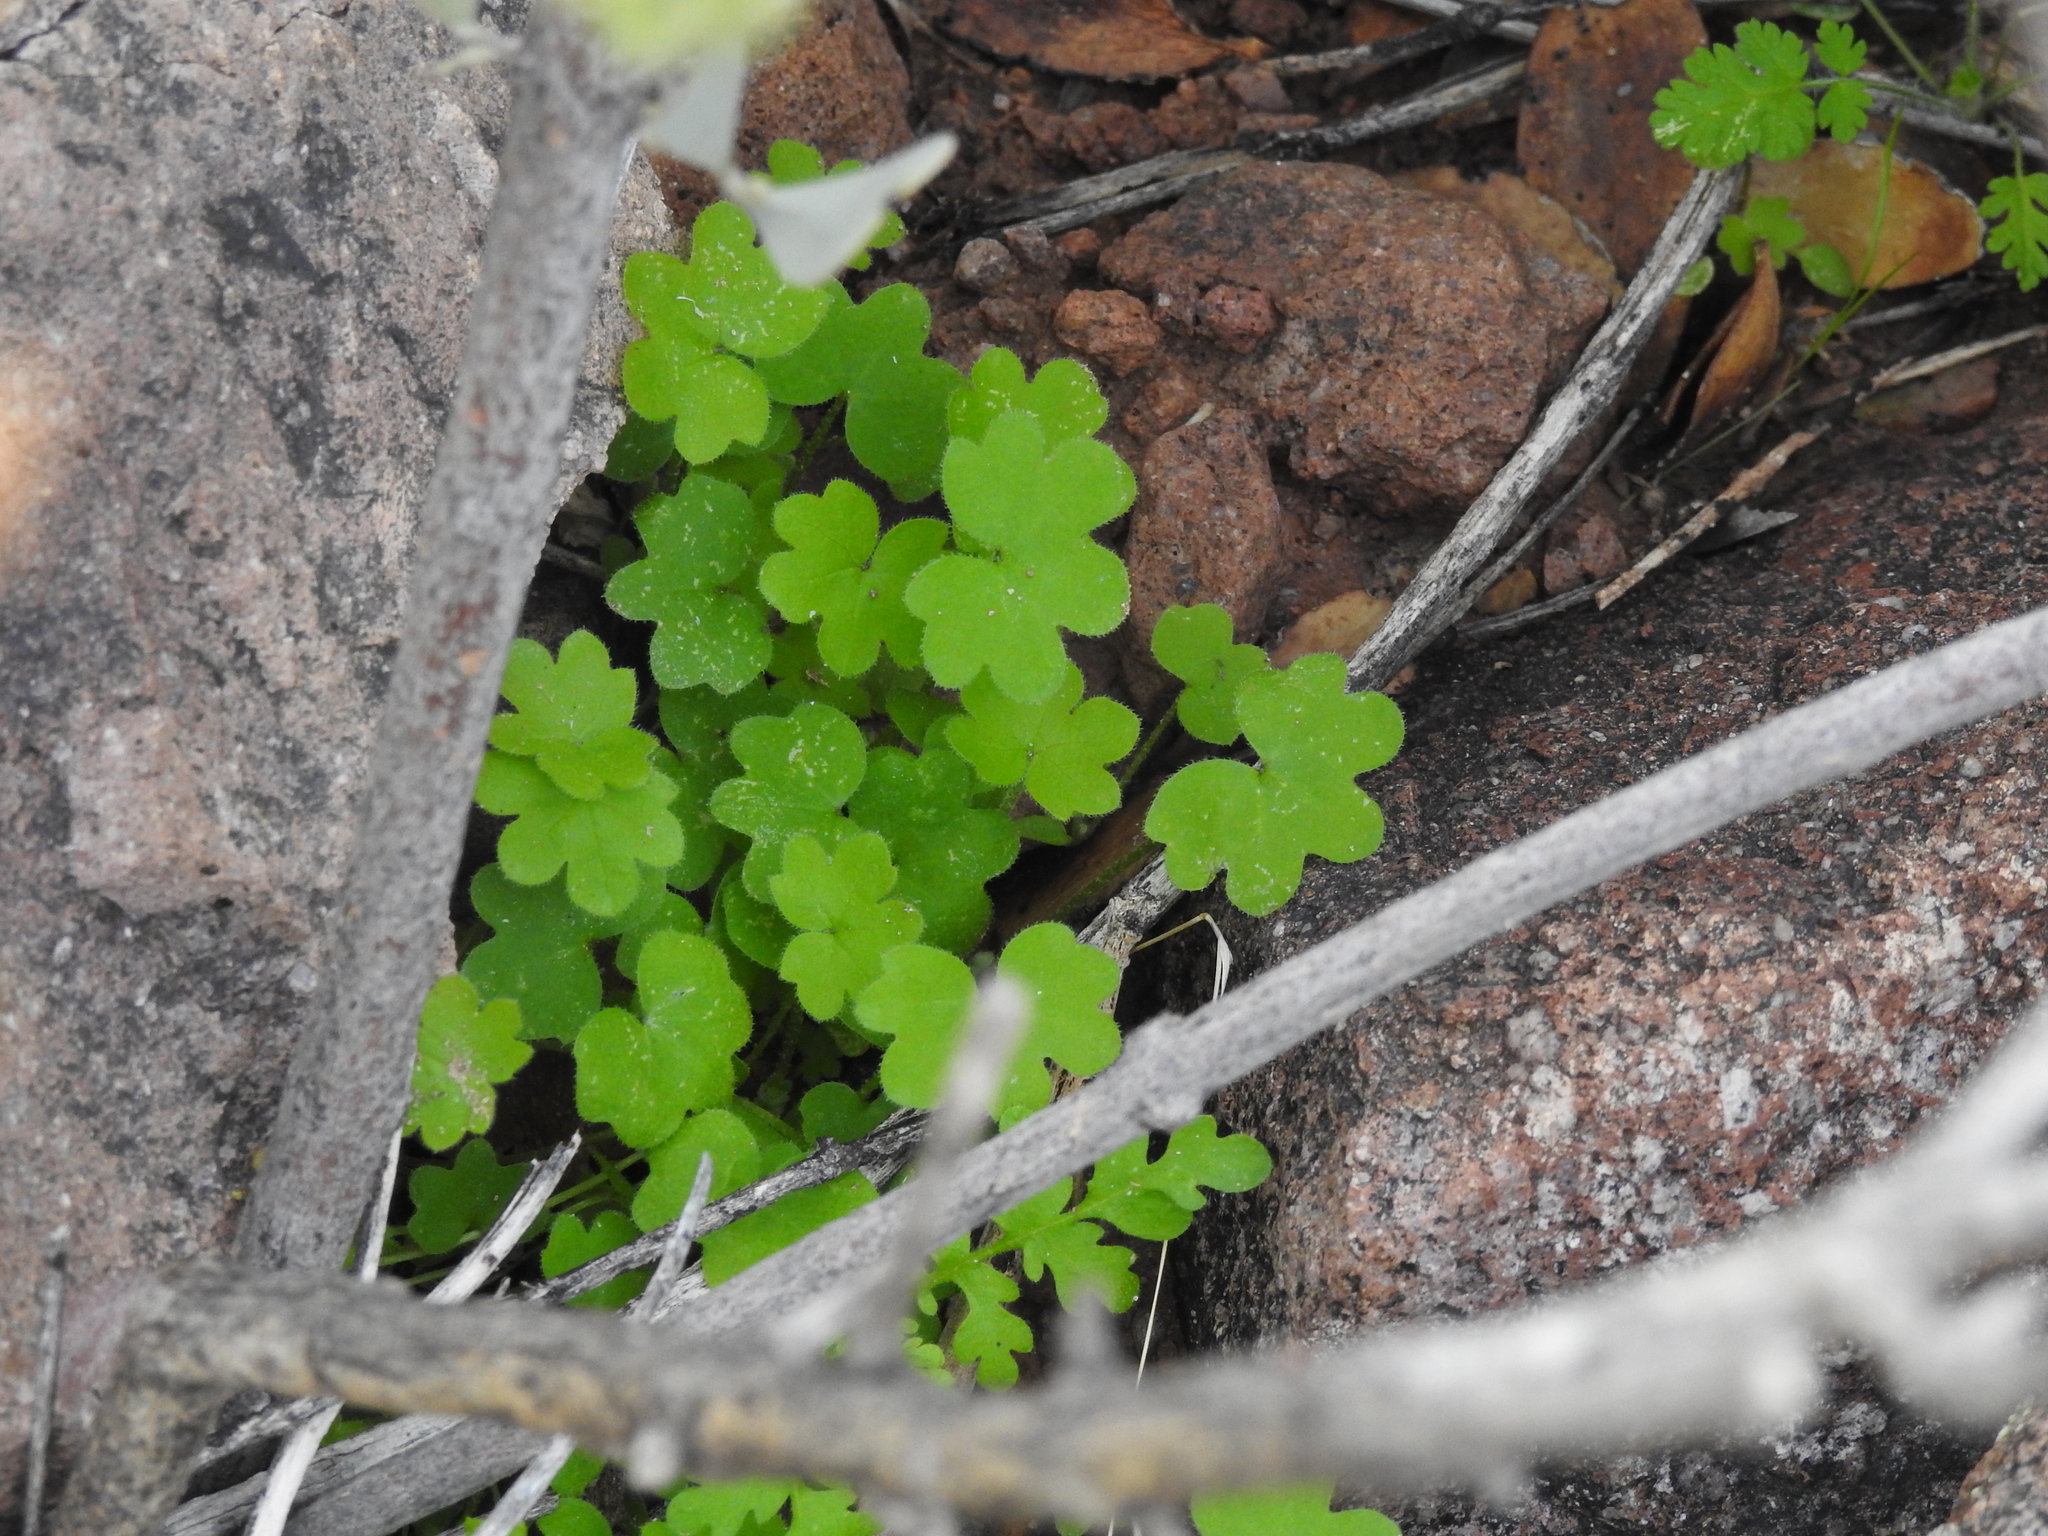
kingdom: Plantae
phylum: Tracheophyta
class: Magnoliopsida
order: Apiales
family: Apiaceae
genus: Bowlesia
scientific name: Bowlesia incana
